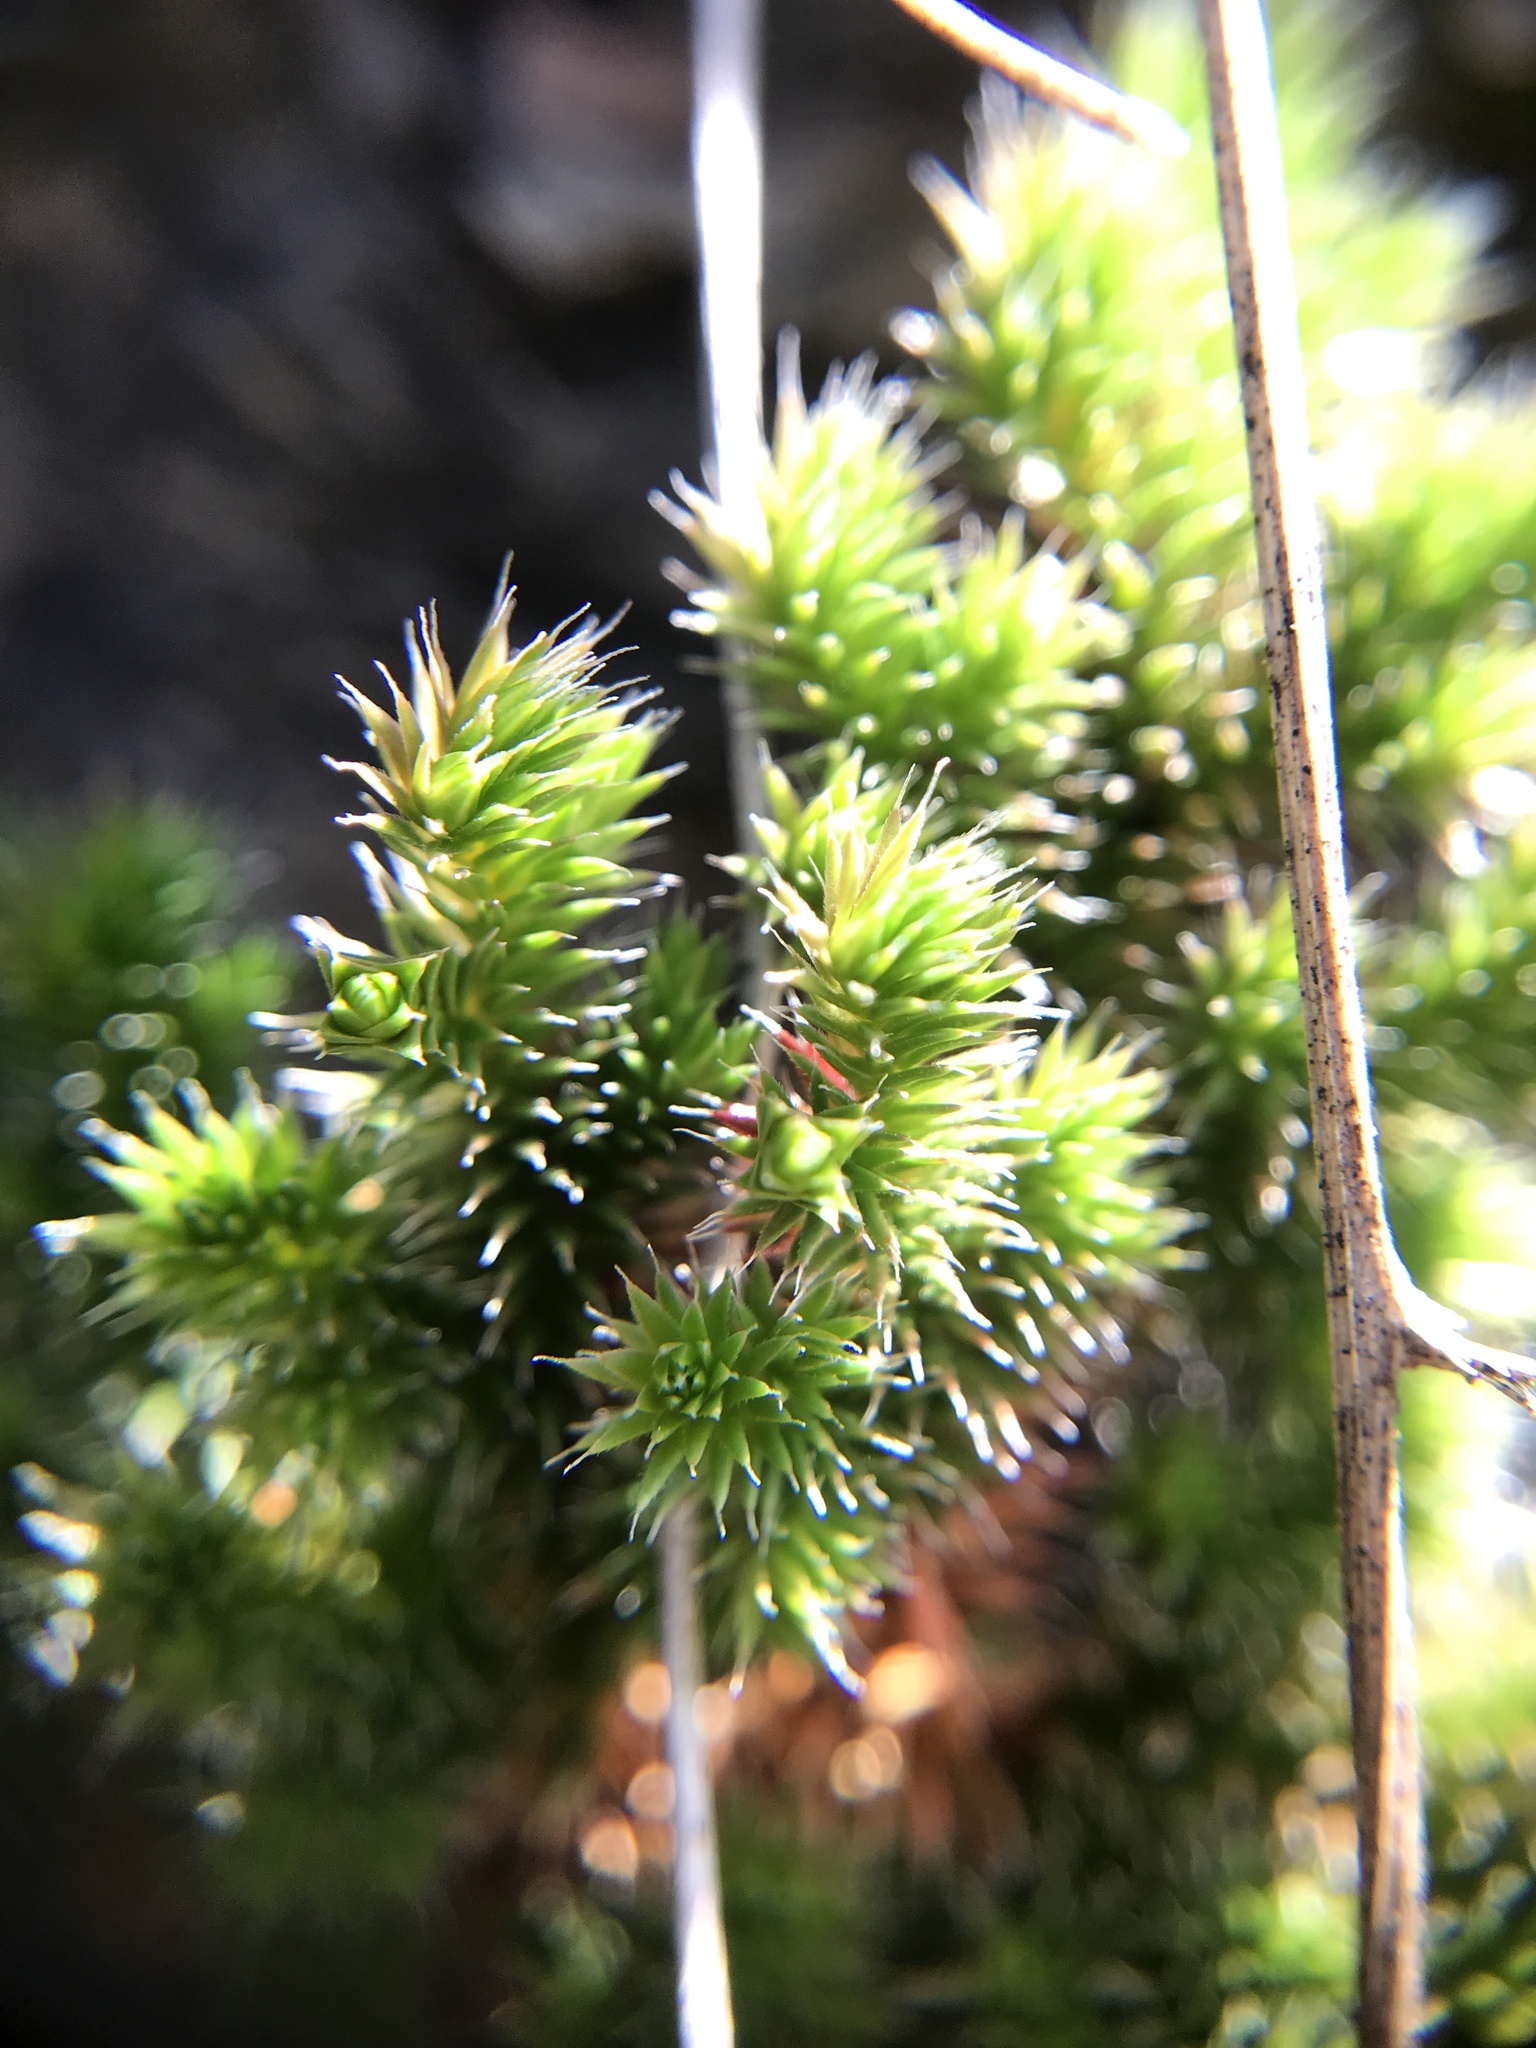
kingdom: Plantae
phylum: Tracheophyta
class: Lycopodiopsida
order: Selaginellales
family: Selaginellaceae
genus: Selaginella
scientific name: Selaginella hansenii
